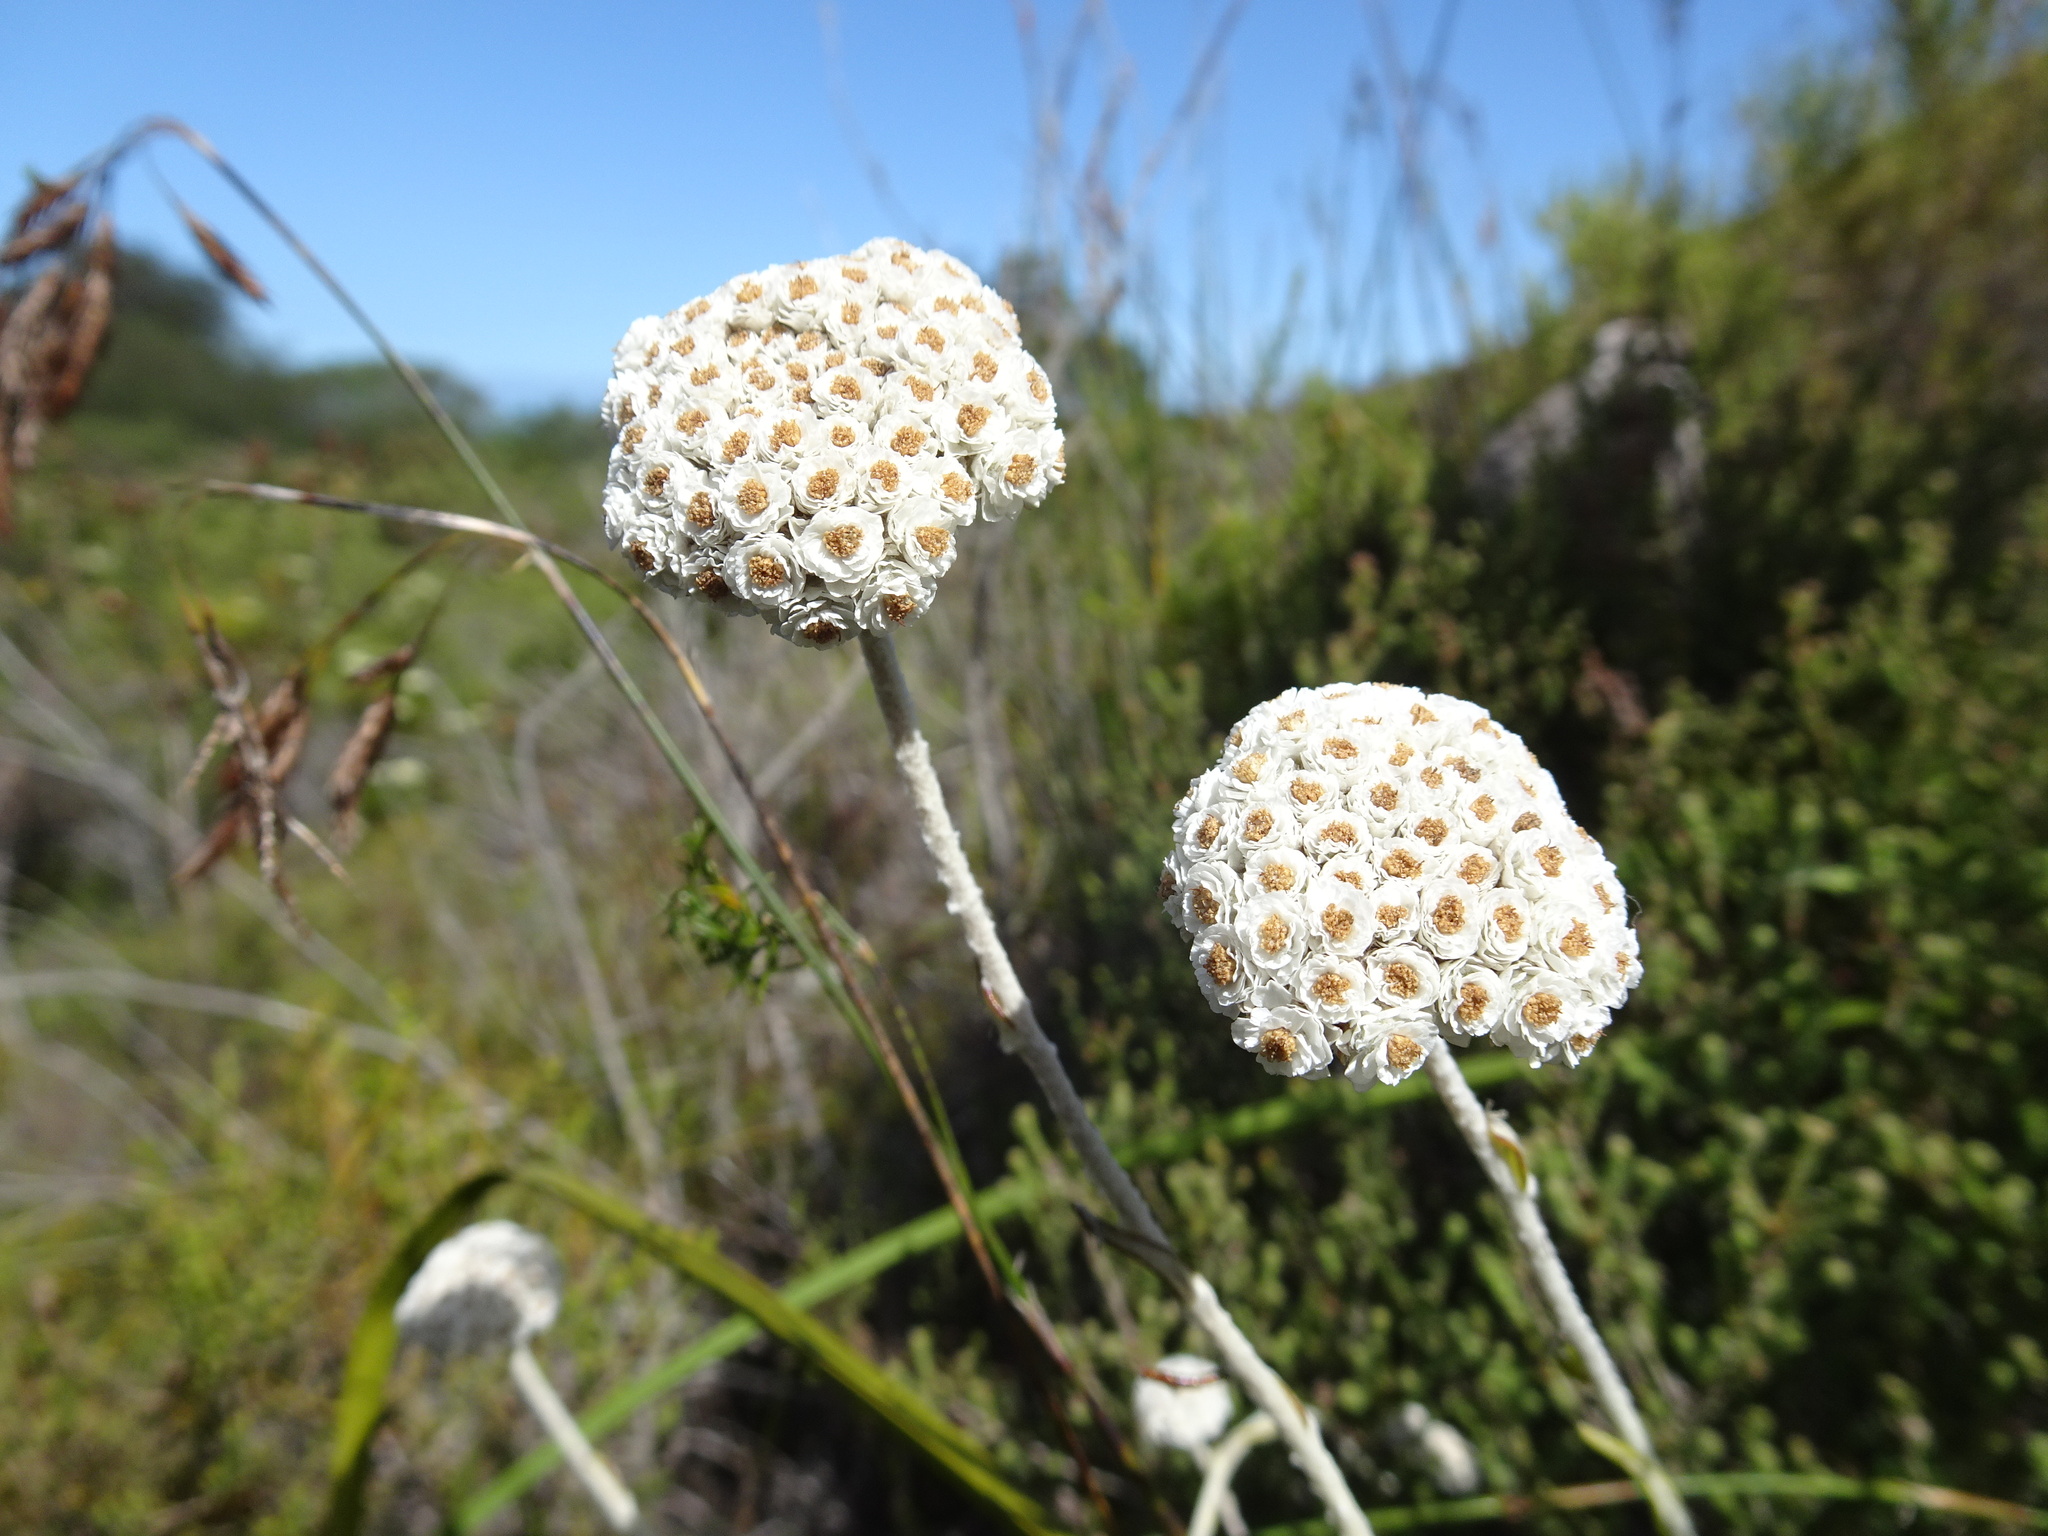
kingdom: Plantae
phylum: Tracheophyta
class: Magnoliopsida
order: Asterales
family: Asteraceae
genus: Anaxeton
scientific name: Anaxeton asperum
